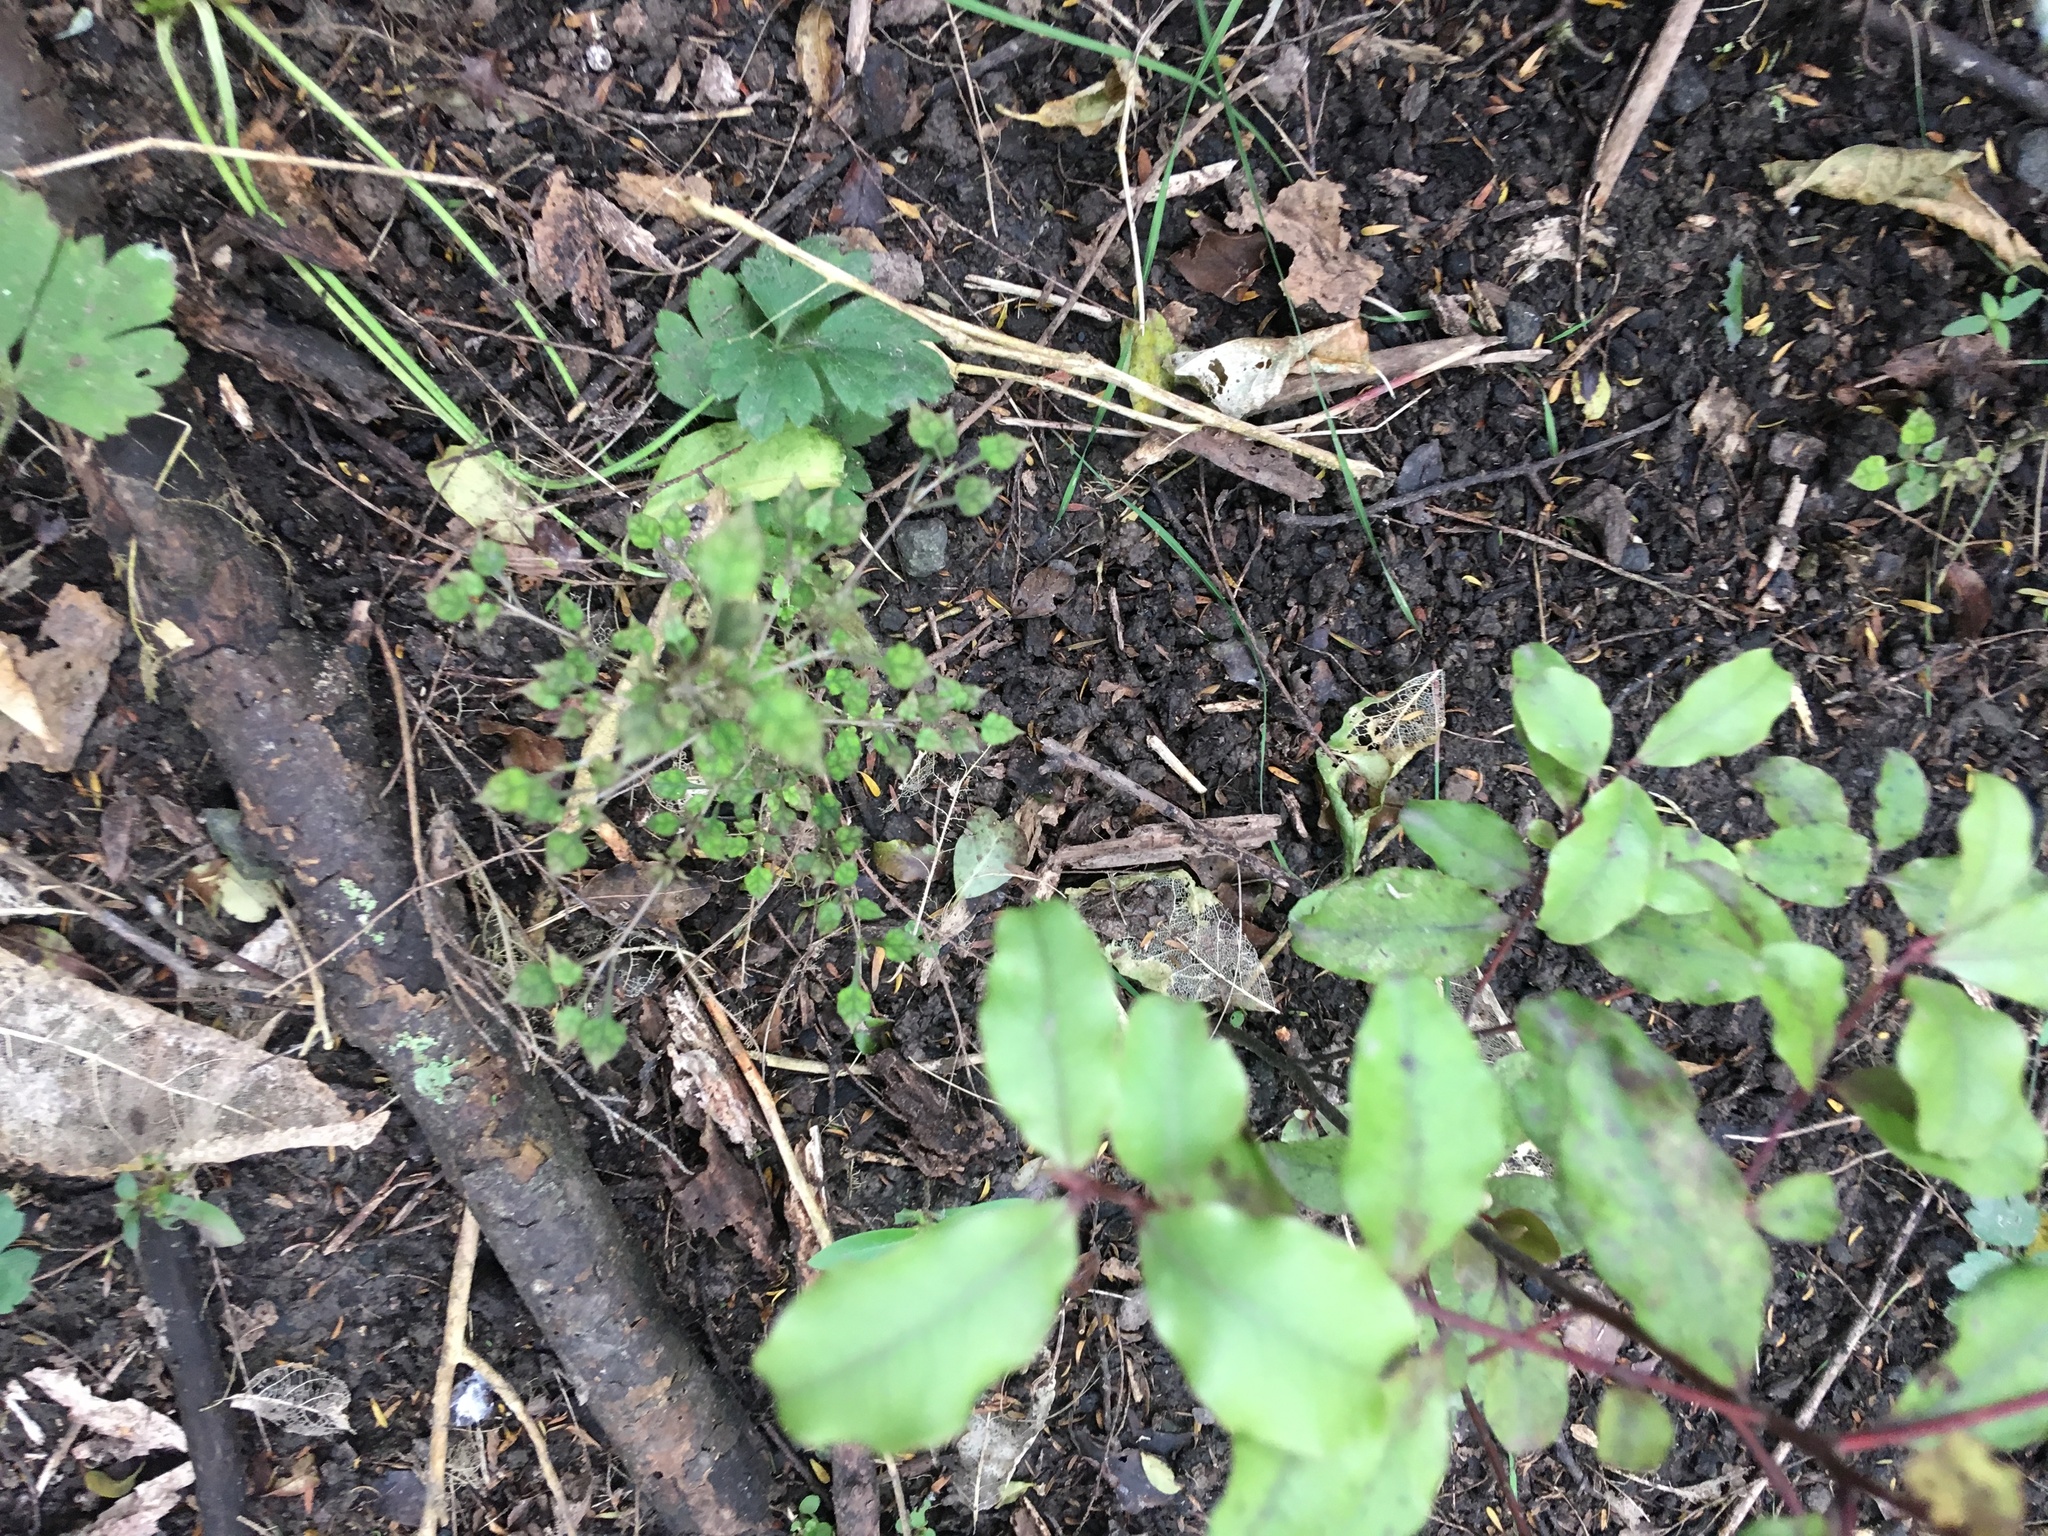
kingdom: Plantae
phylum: Tracheophyta
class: Magnoliopsida
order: Gentianales
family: Rubiaceae
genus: Coprosma
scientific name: Coprosma areolata
